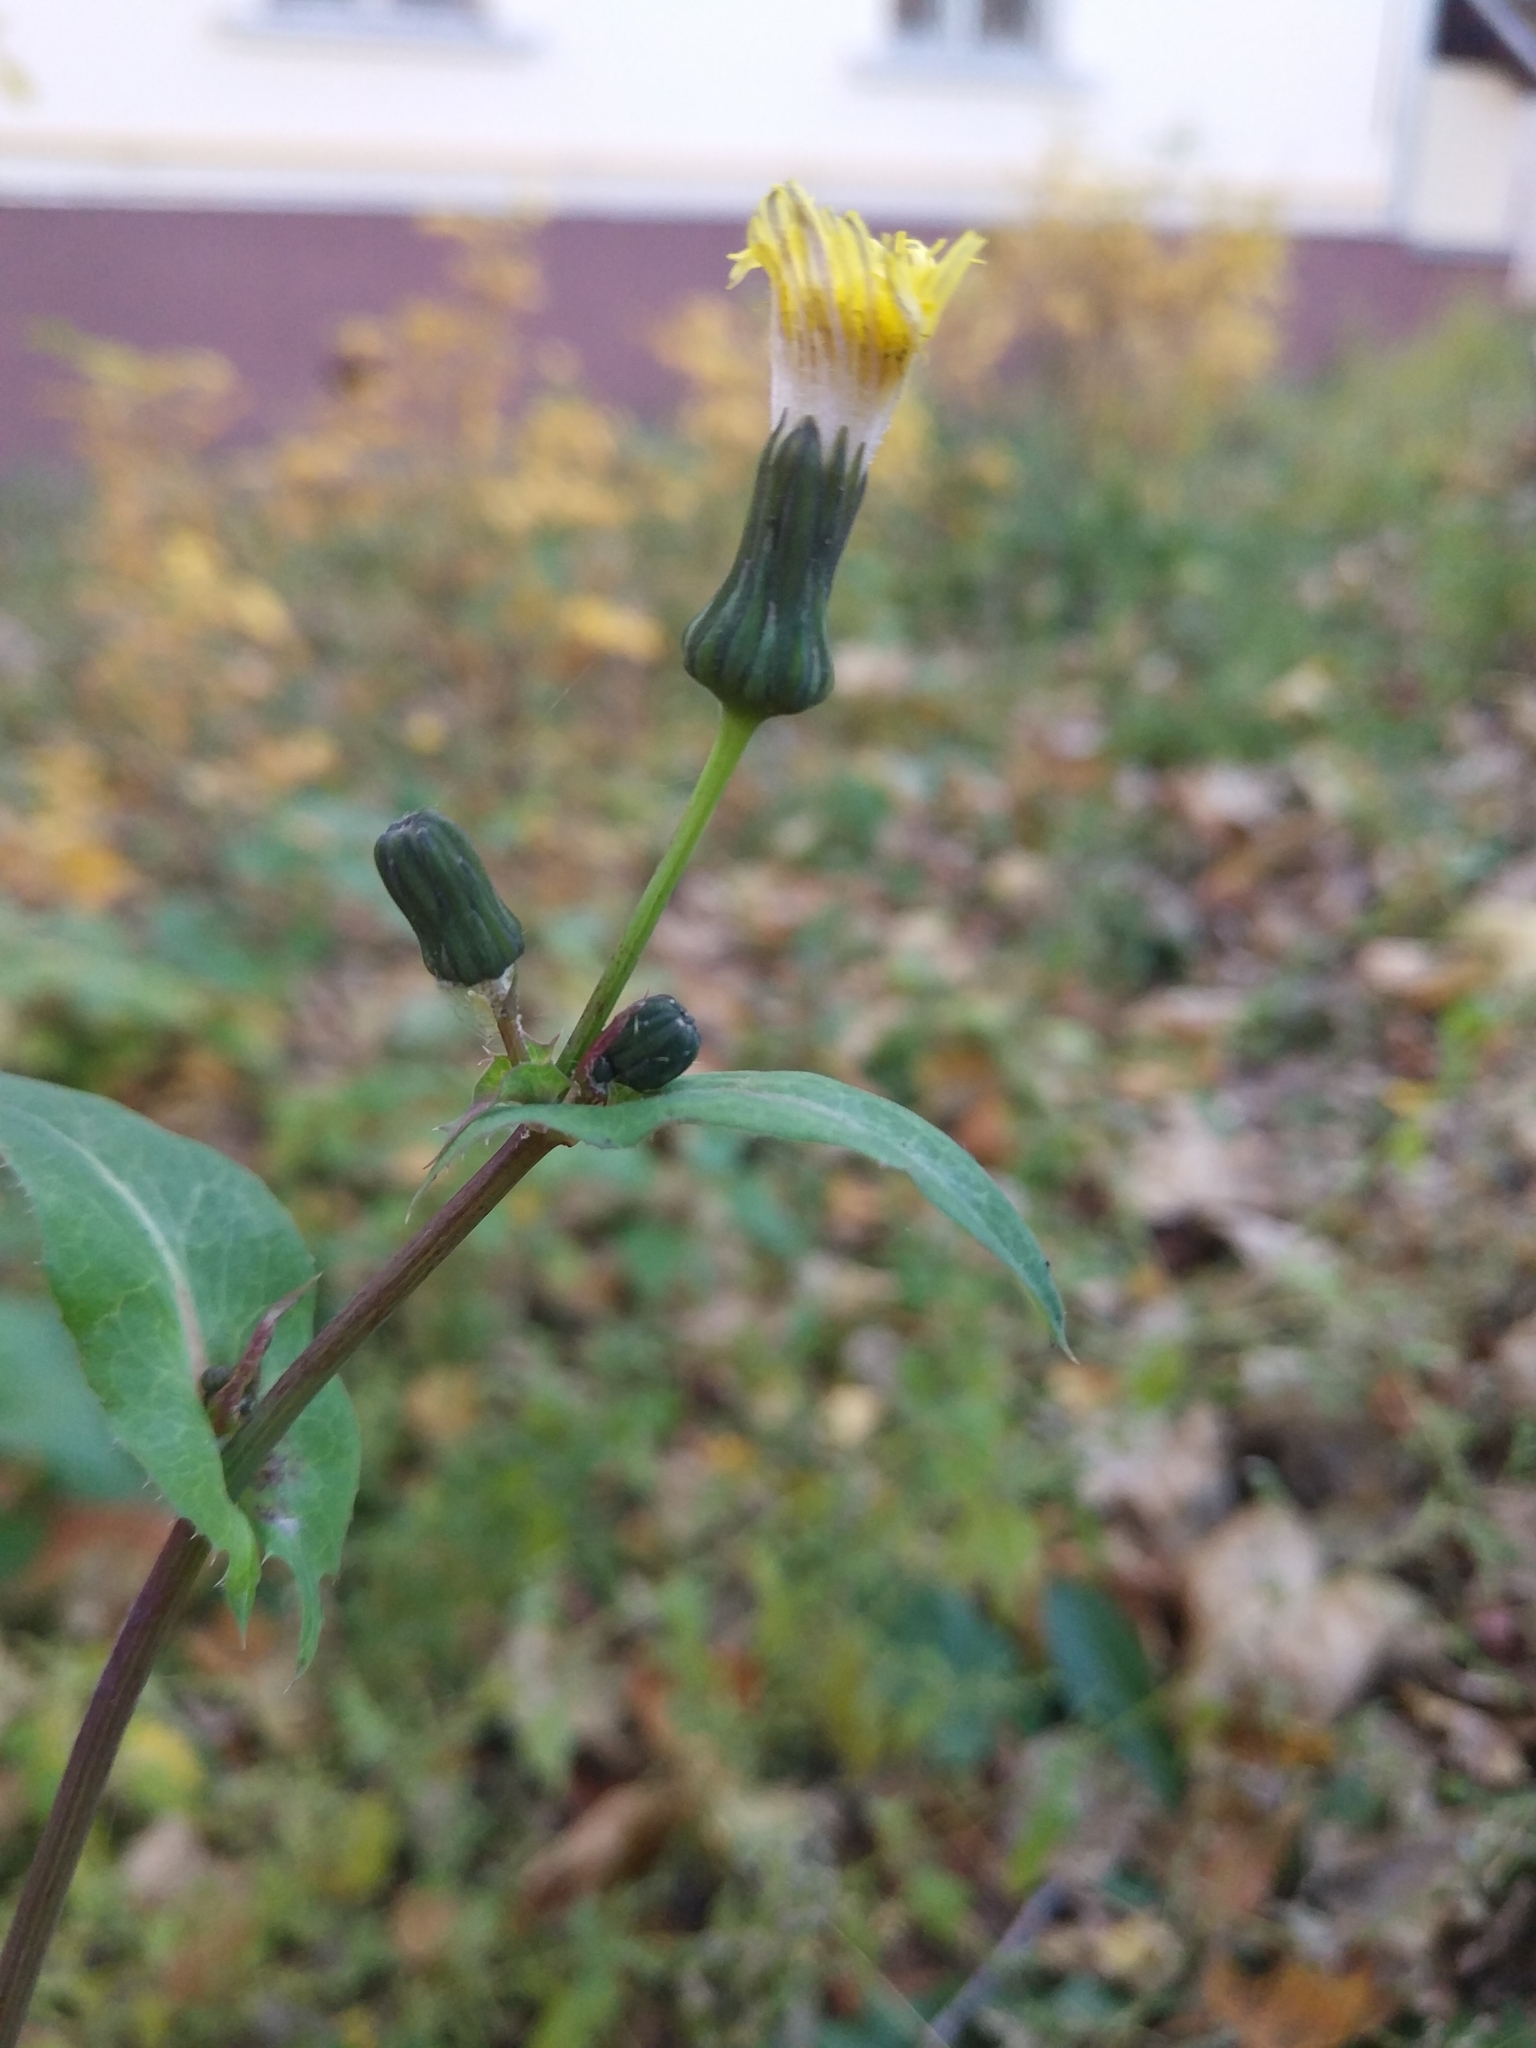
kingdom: Plantae
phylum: Tracheophyta
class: Magnoliopsida
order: Asterales
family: Asteraceae
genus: Sonchus
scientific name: Sonchus oleraceus
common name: Common sowthistle
